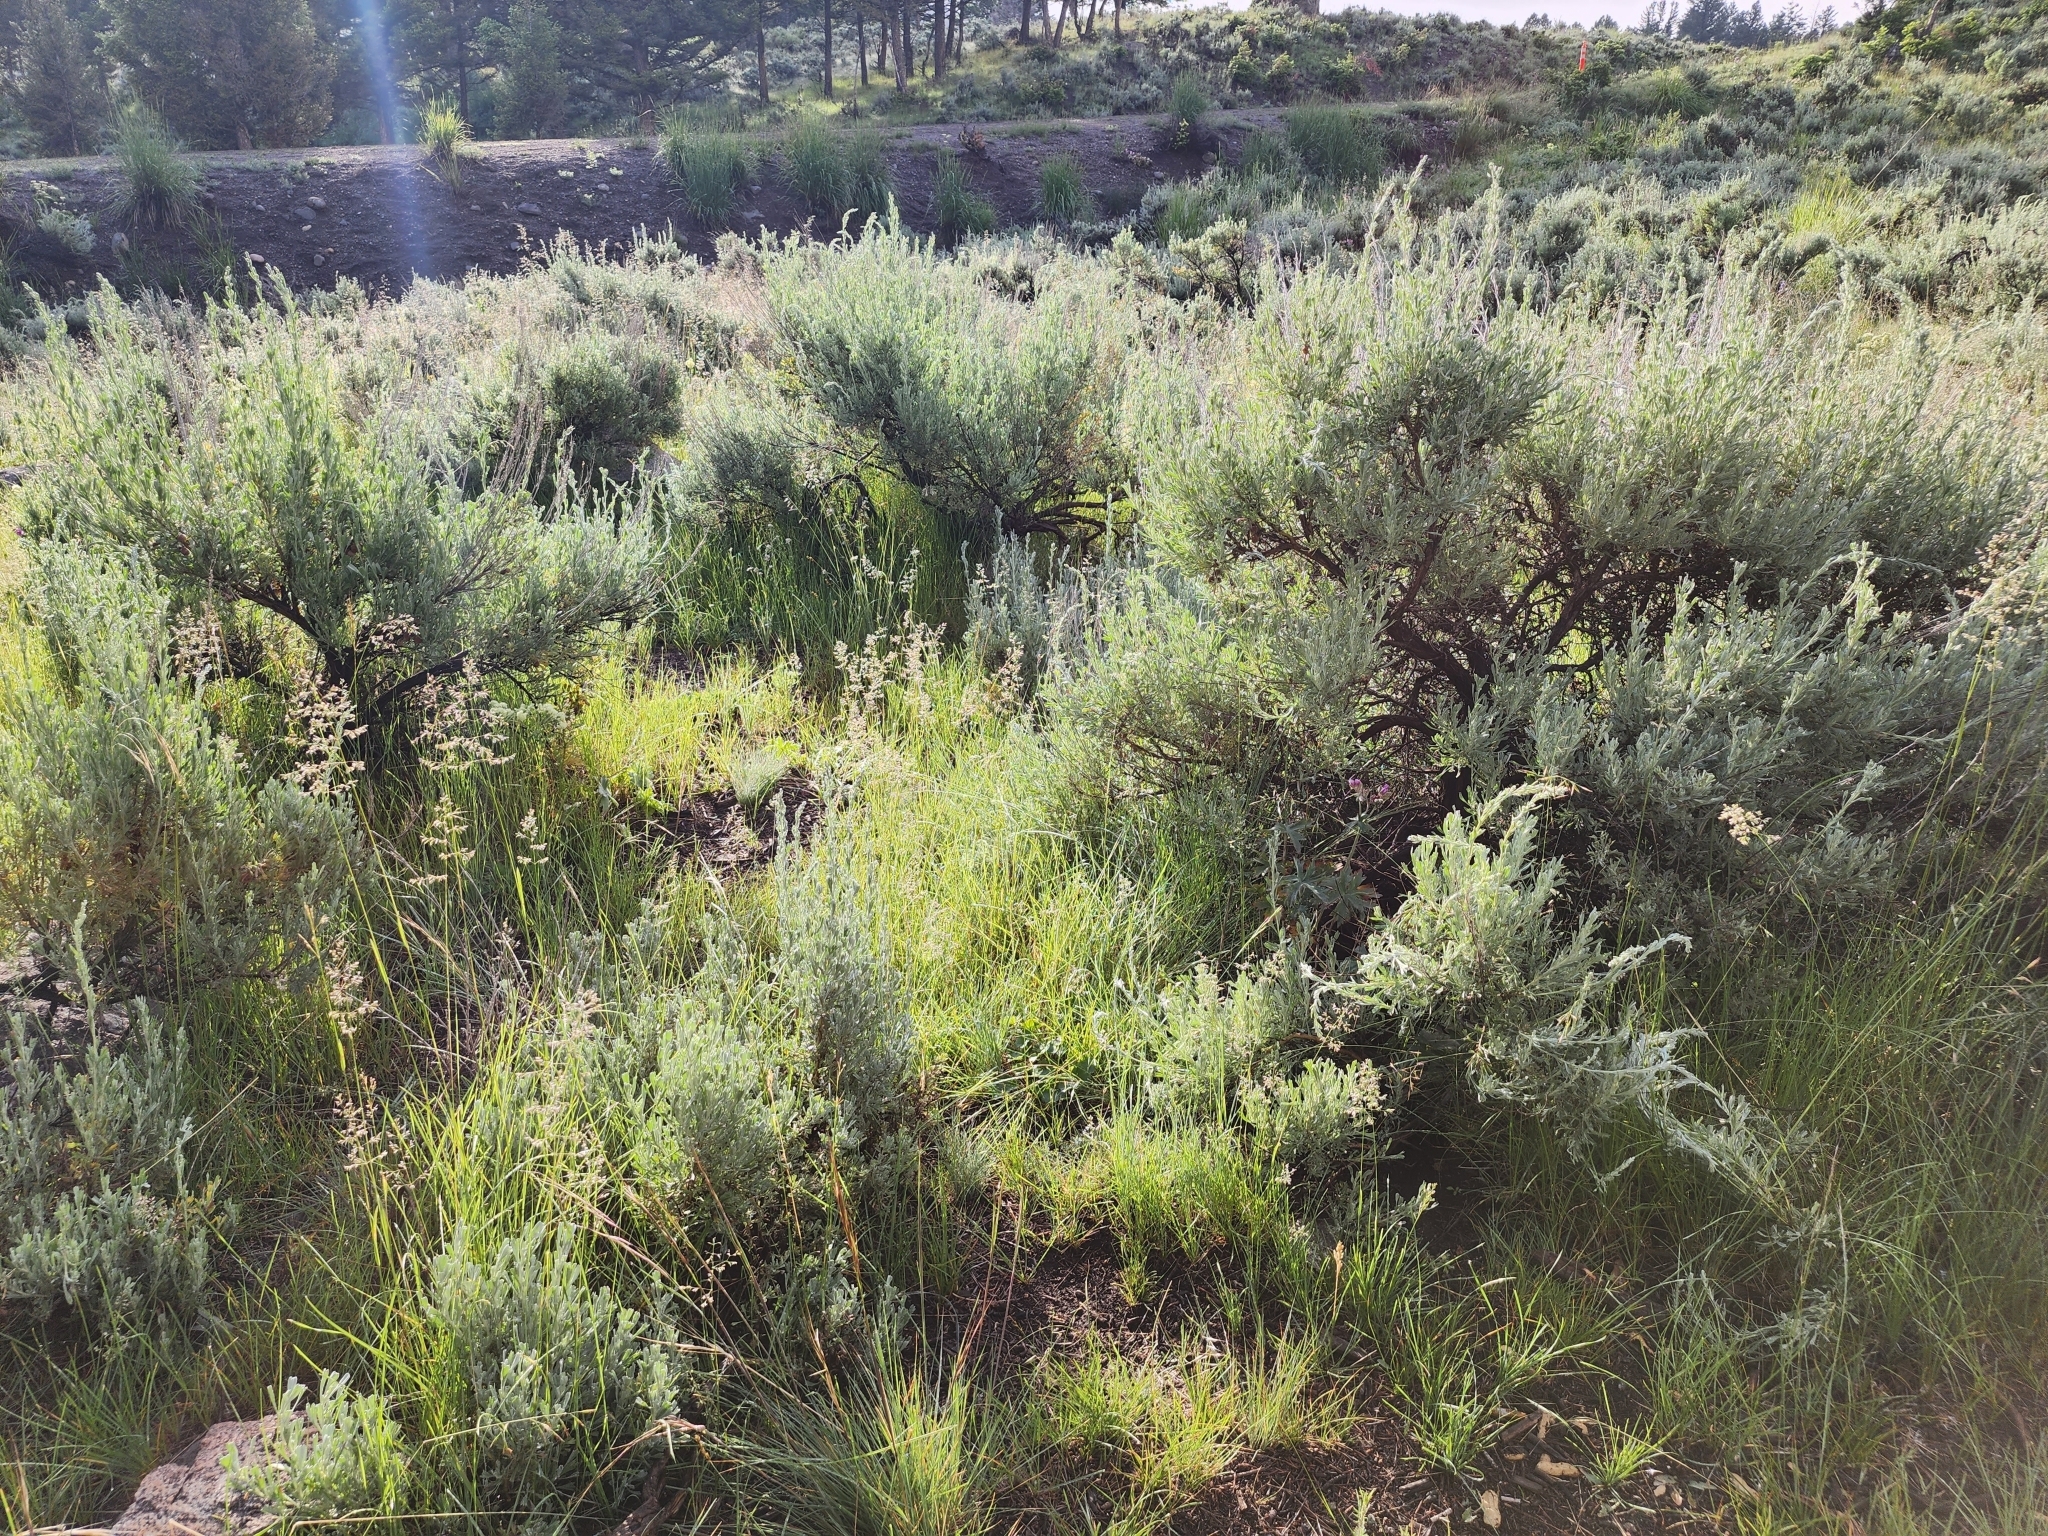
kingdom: Plantae
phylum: Tracheophyta
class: Magnoliopsida
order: Asterales
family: Asteraceae
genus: Artemisia
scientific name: Artemisia tridentata
